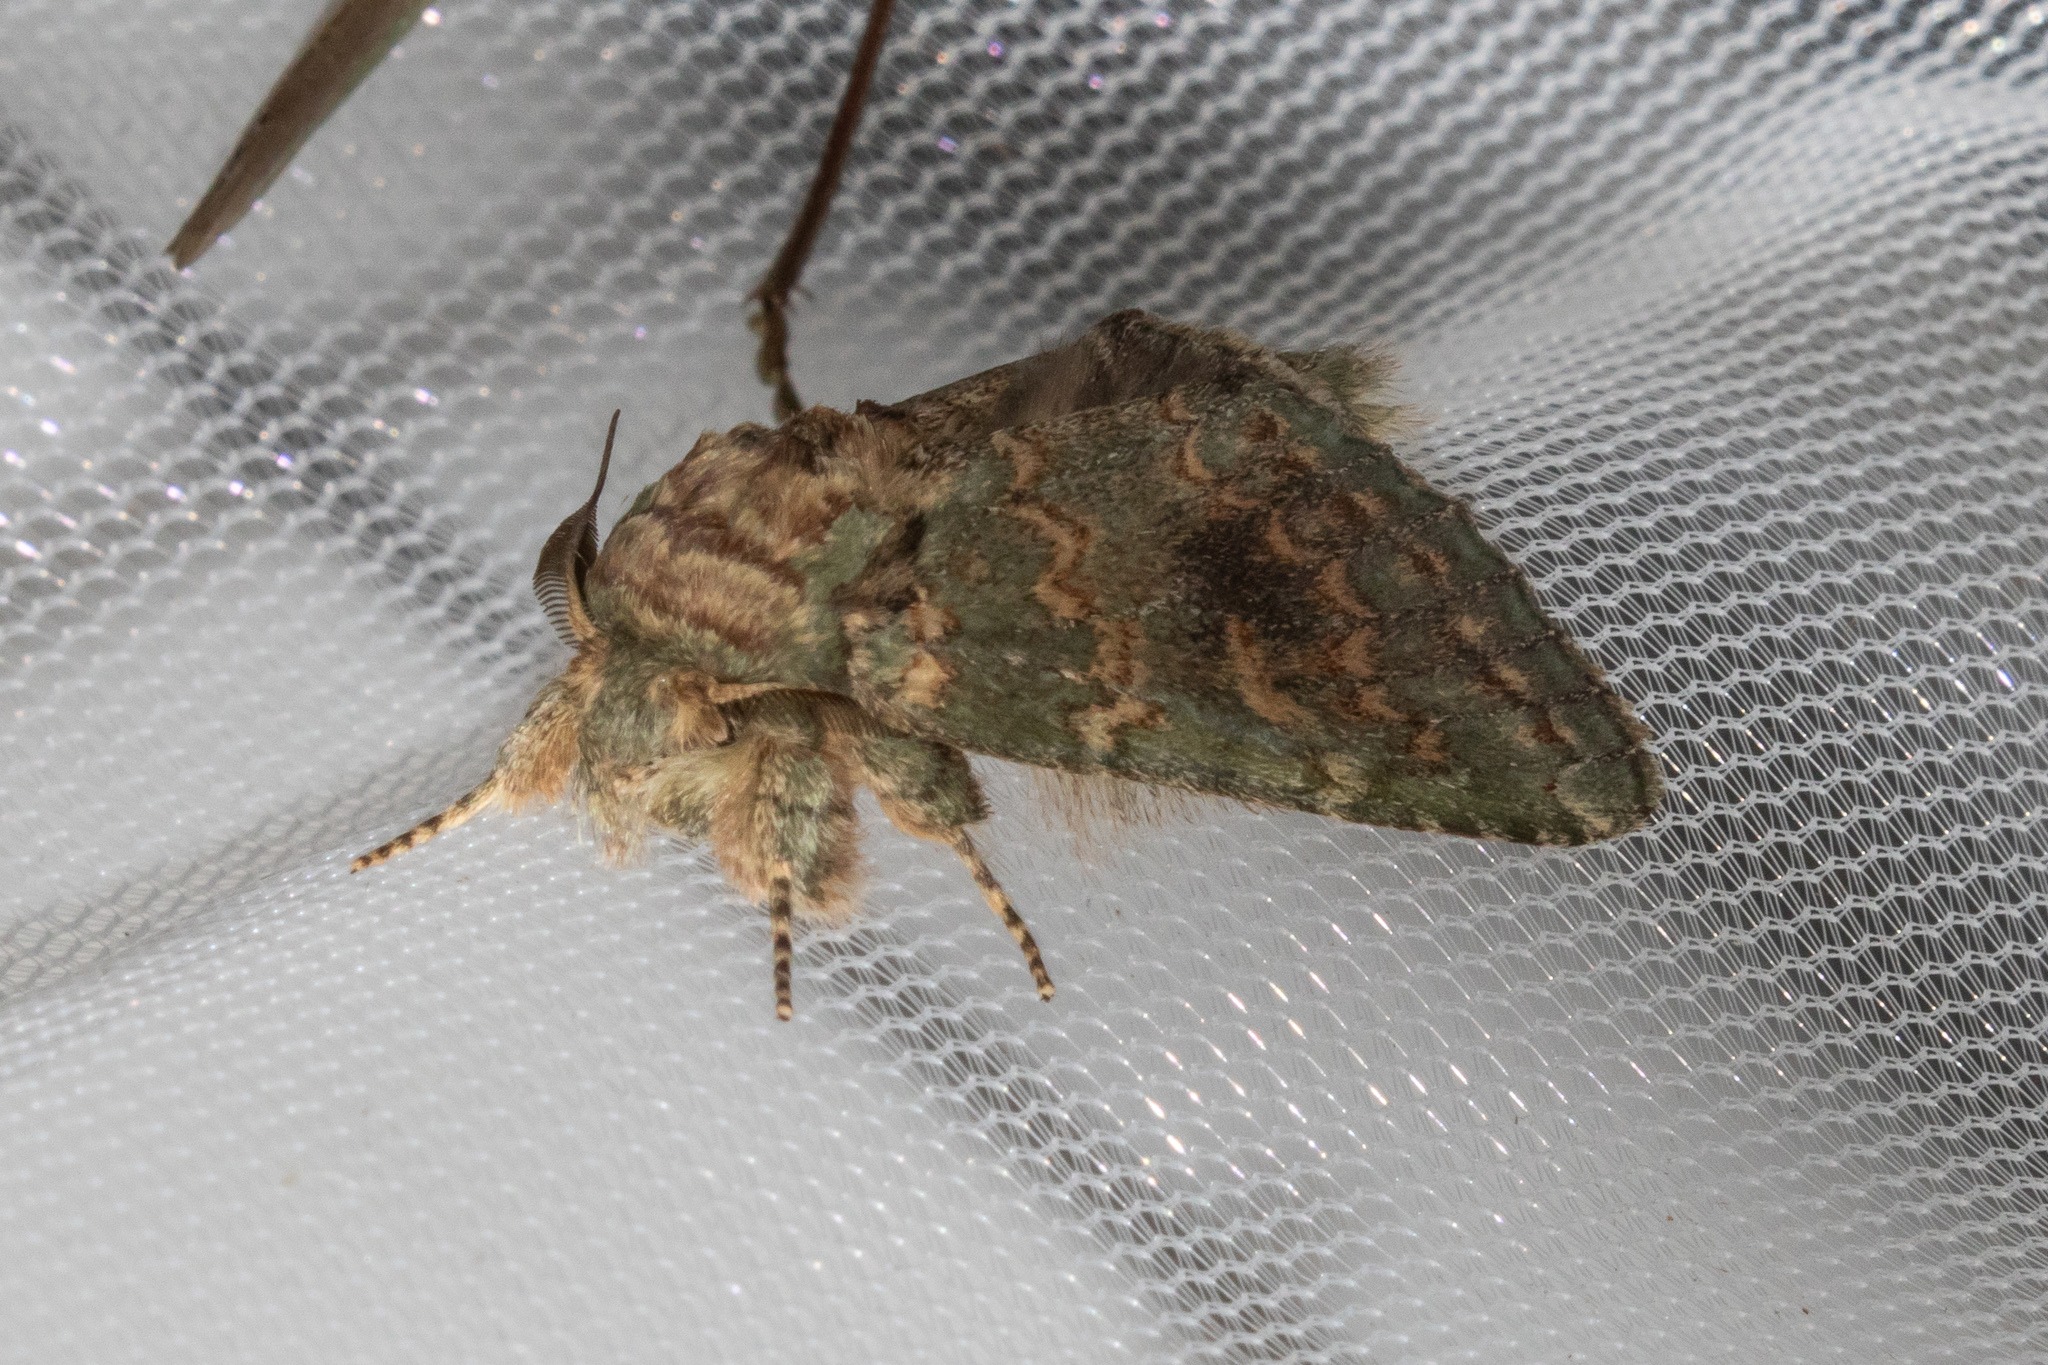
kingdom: Animalia
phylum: Arthropoda
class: Insecta
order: Lepidoptera
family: Notodontidae
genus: Disphragis
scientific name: Disphragis Cecrita biundata
